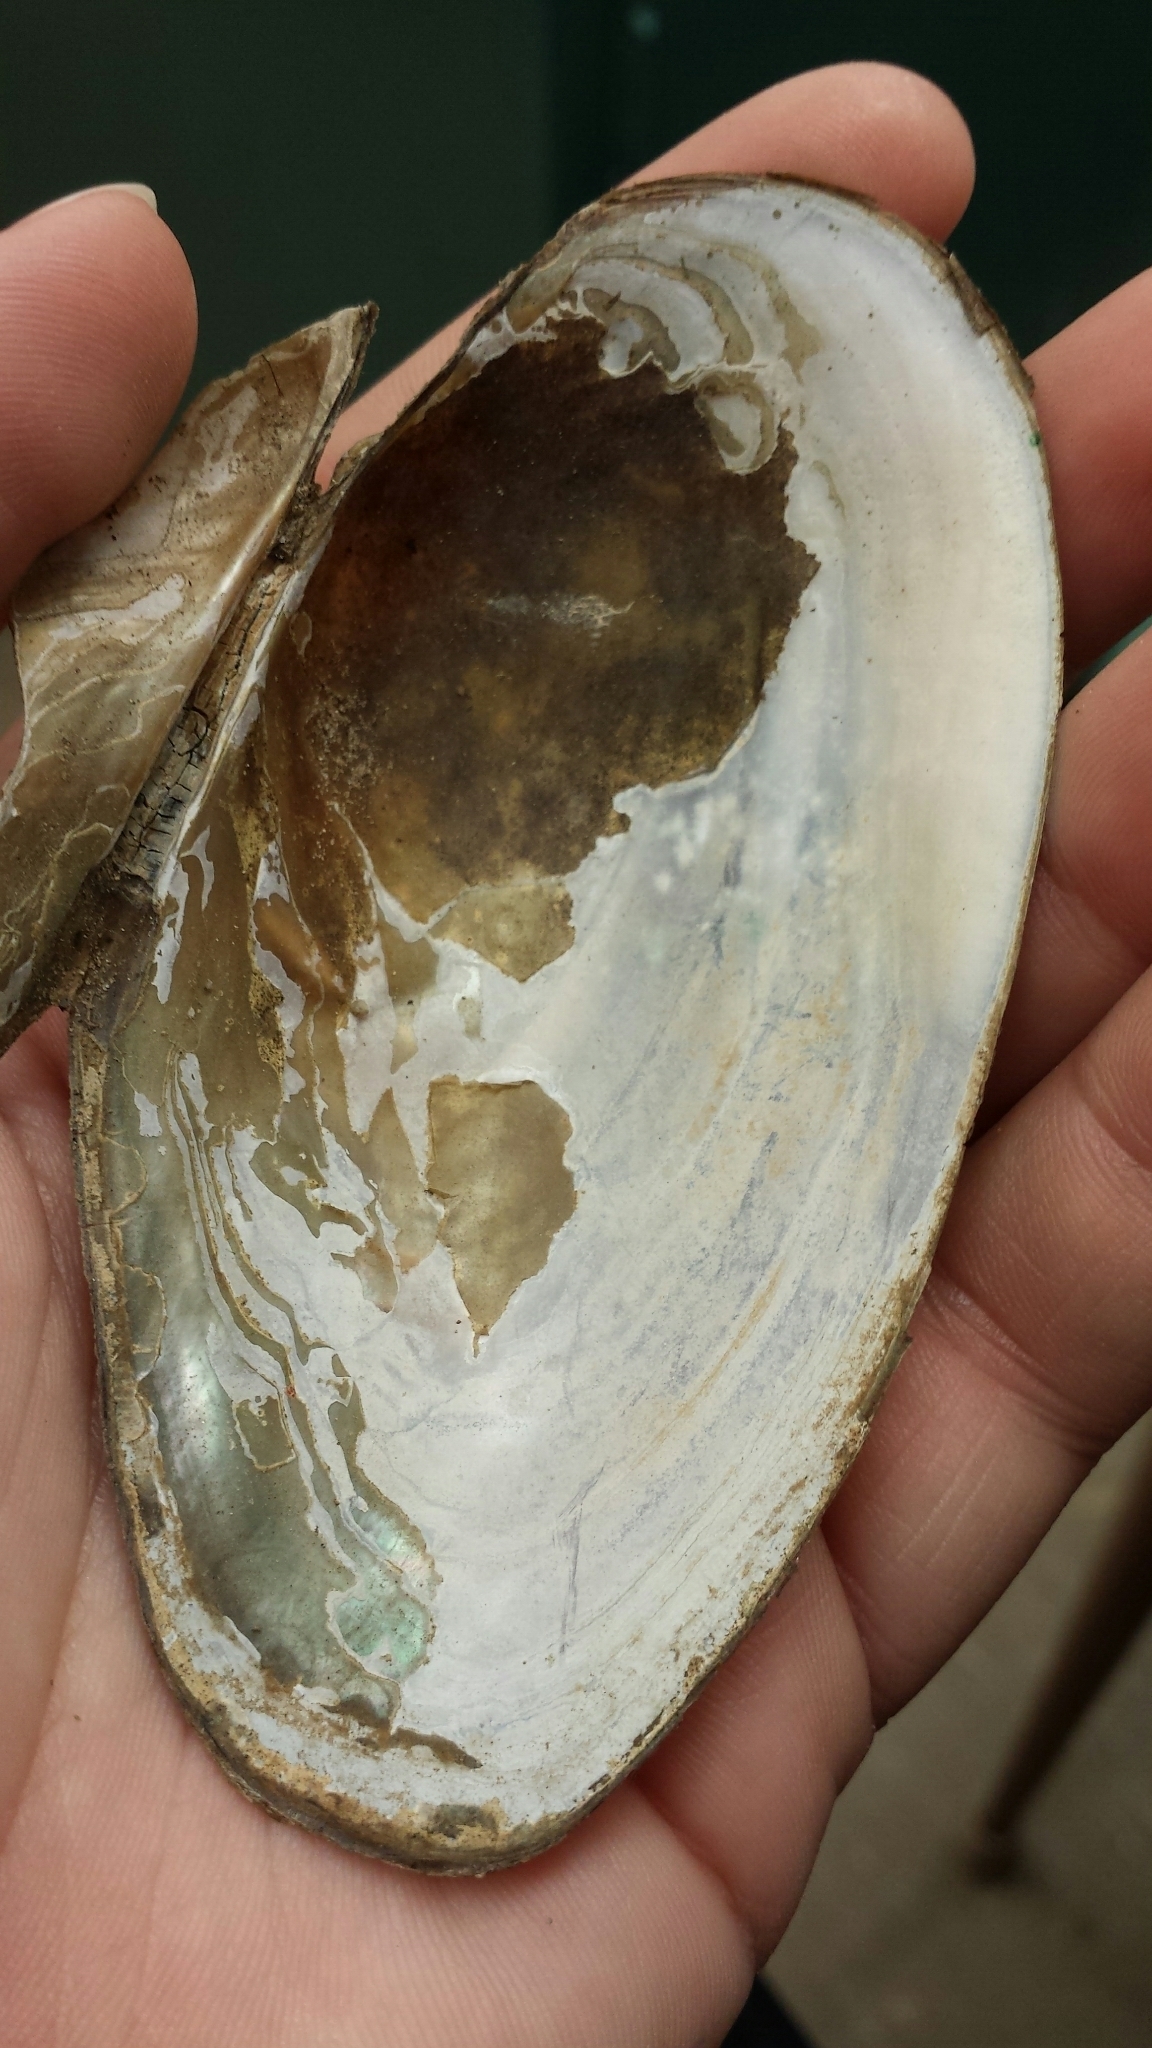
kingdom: Animalia
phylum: Mollusca
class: Bivalvia
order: Unionida
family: Unionidae
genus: Utterbackiana
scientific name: Utterbackiana implicata
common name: Alewife floater
